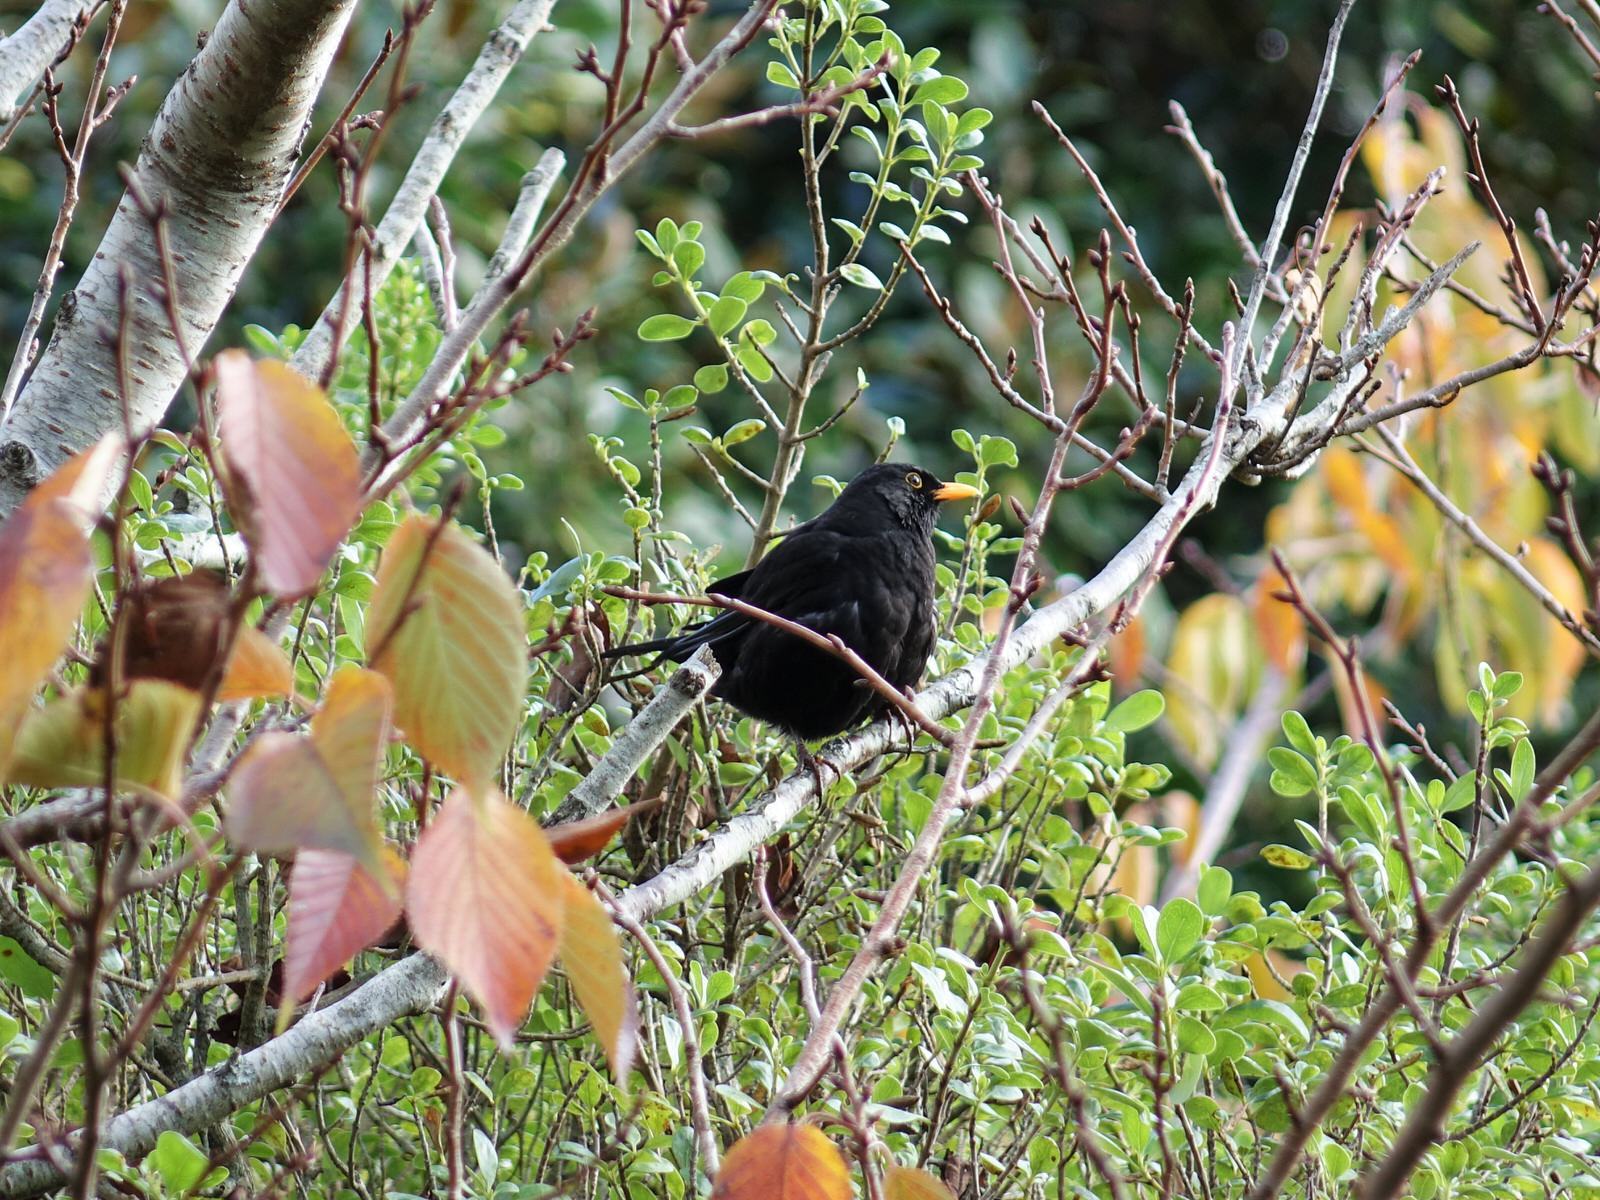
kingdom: Animalia
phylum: Chordata
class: Aves
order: Passeriformes
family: Turdidae
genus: Turdus
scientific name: Turdus merula
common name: Common blackbird
